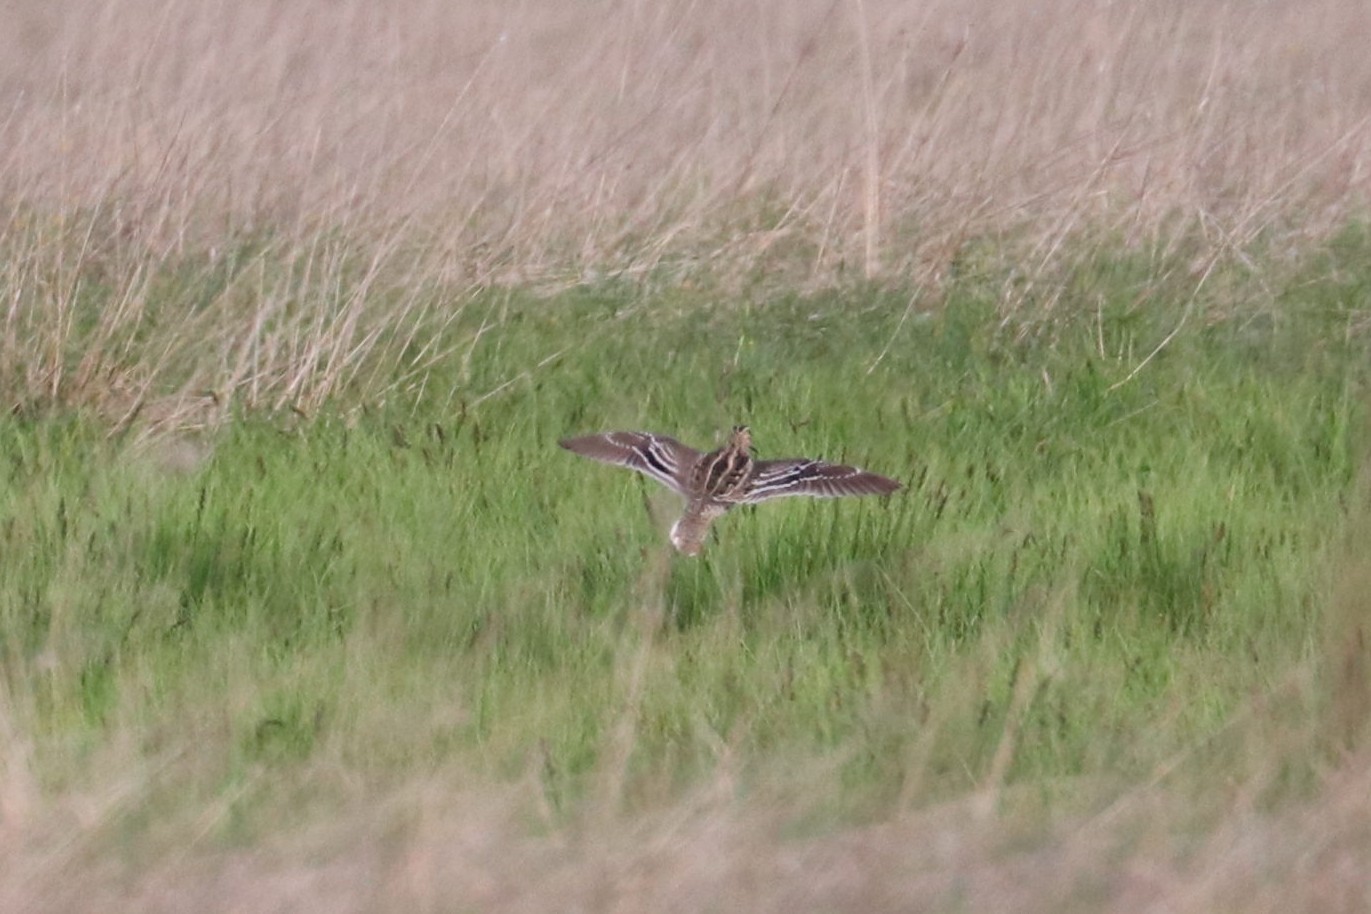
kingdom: Animalia
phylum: Chordata
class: Aves
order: Charadriiformes
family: Scolopacidae
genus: Gallinago
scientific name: Gallinago media
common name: Great snipe
